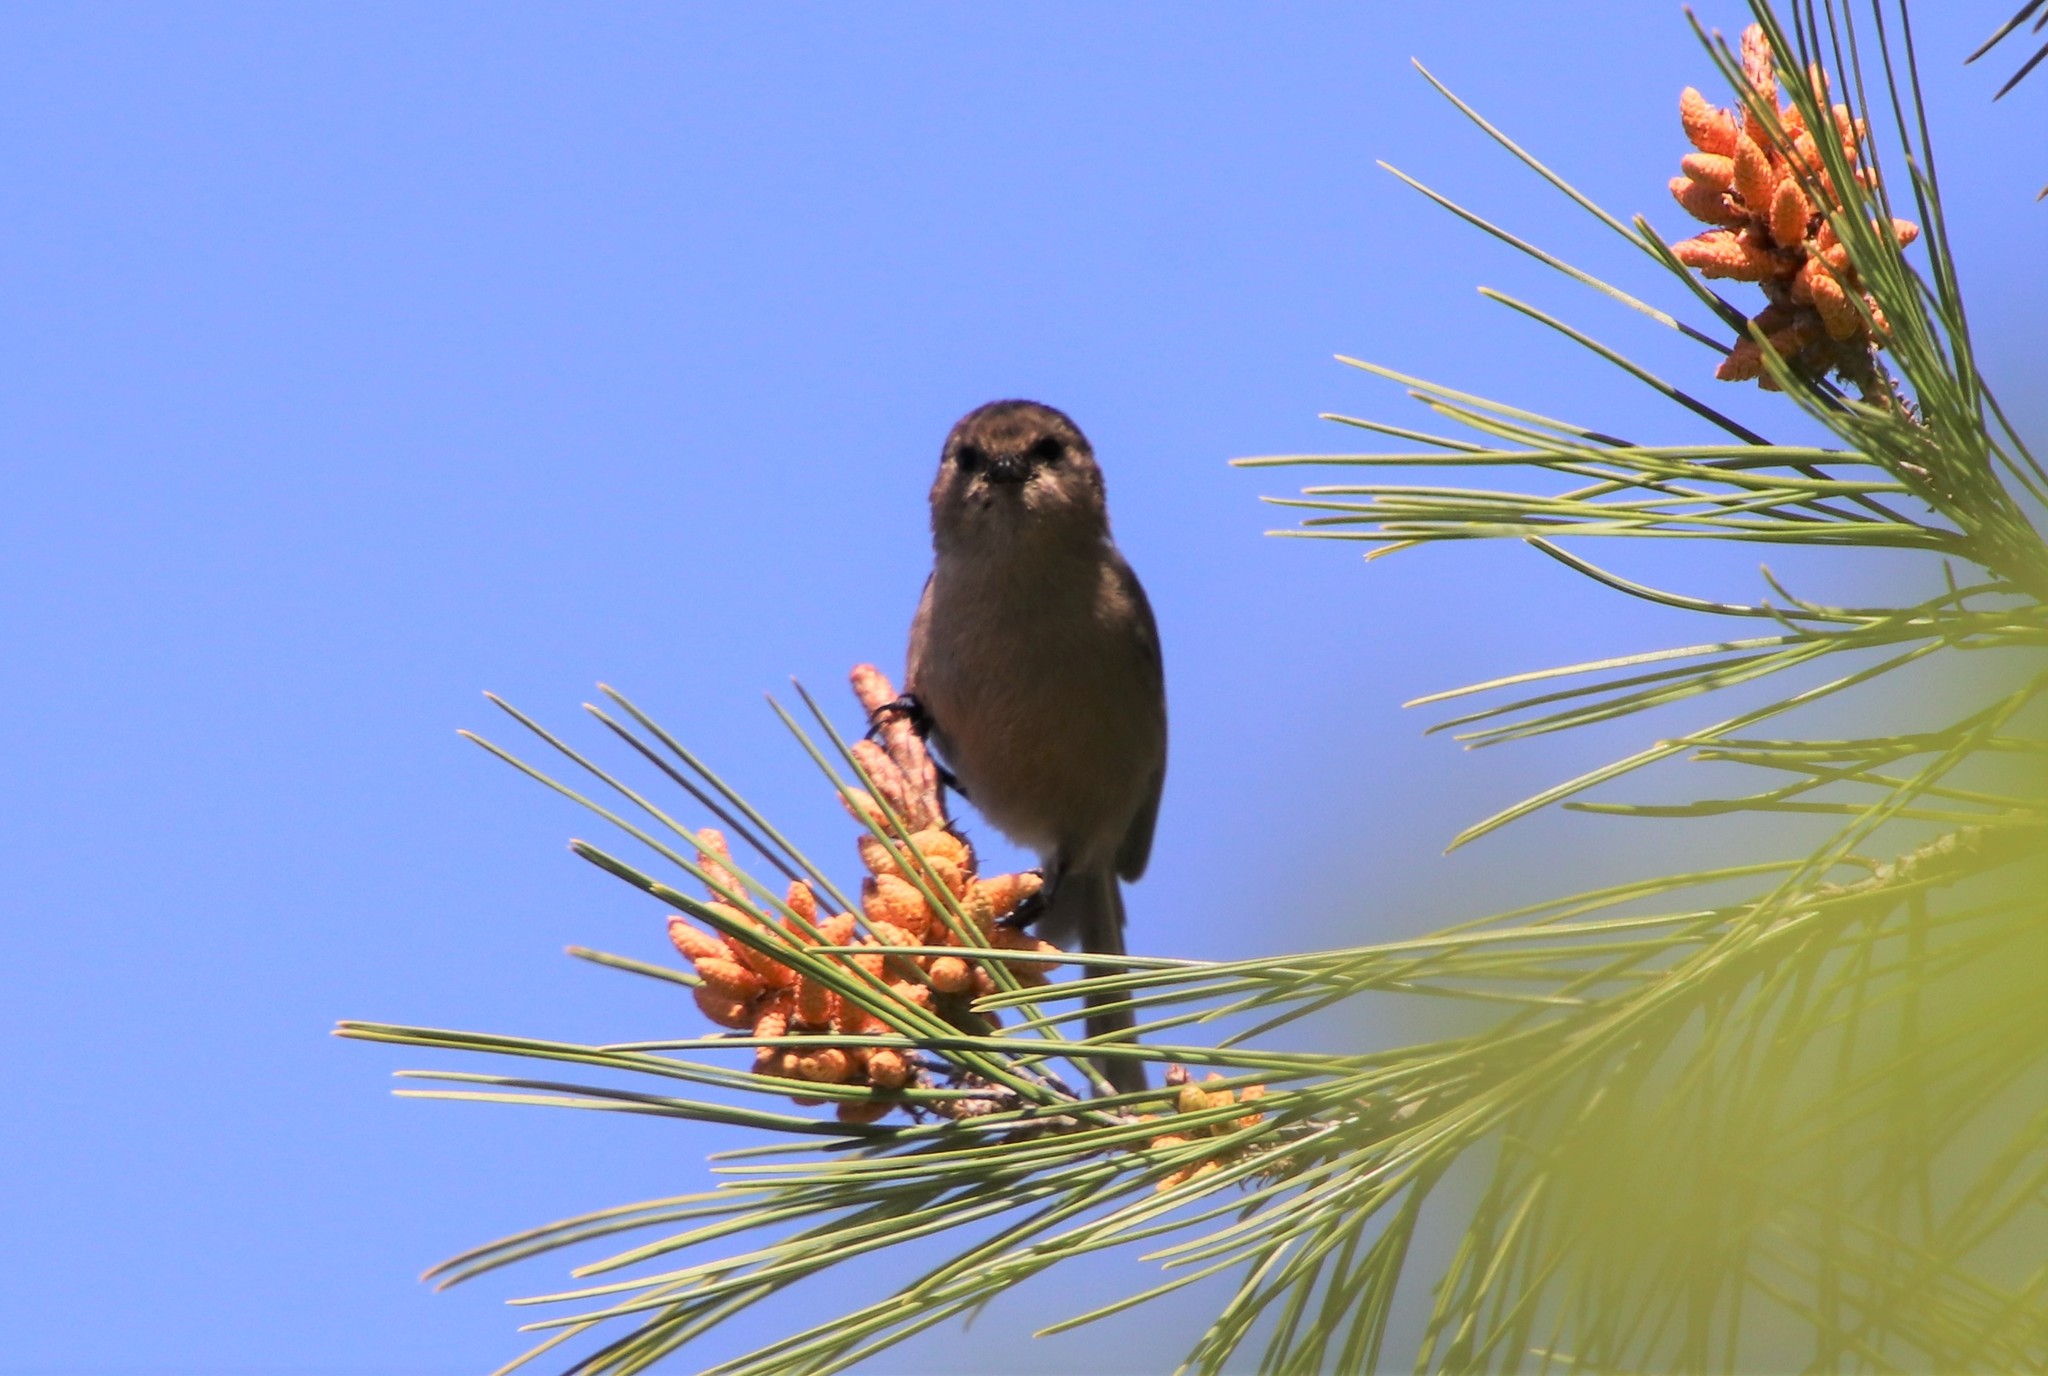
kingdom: Animalia
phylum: Chordata
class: Aves
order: Passeriformes
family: Aegithalidae
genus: Psaltriparus
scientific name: Psaltriparus minimus
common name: American bushtit
